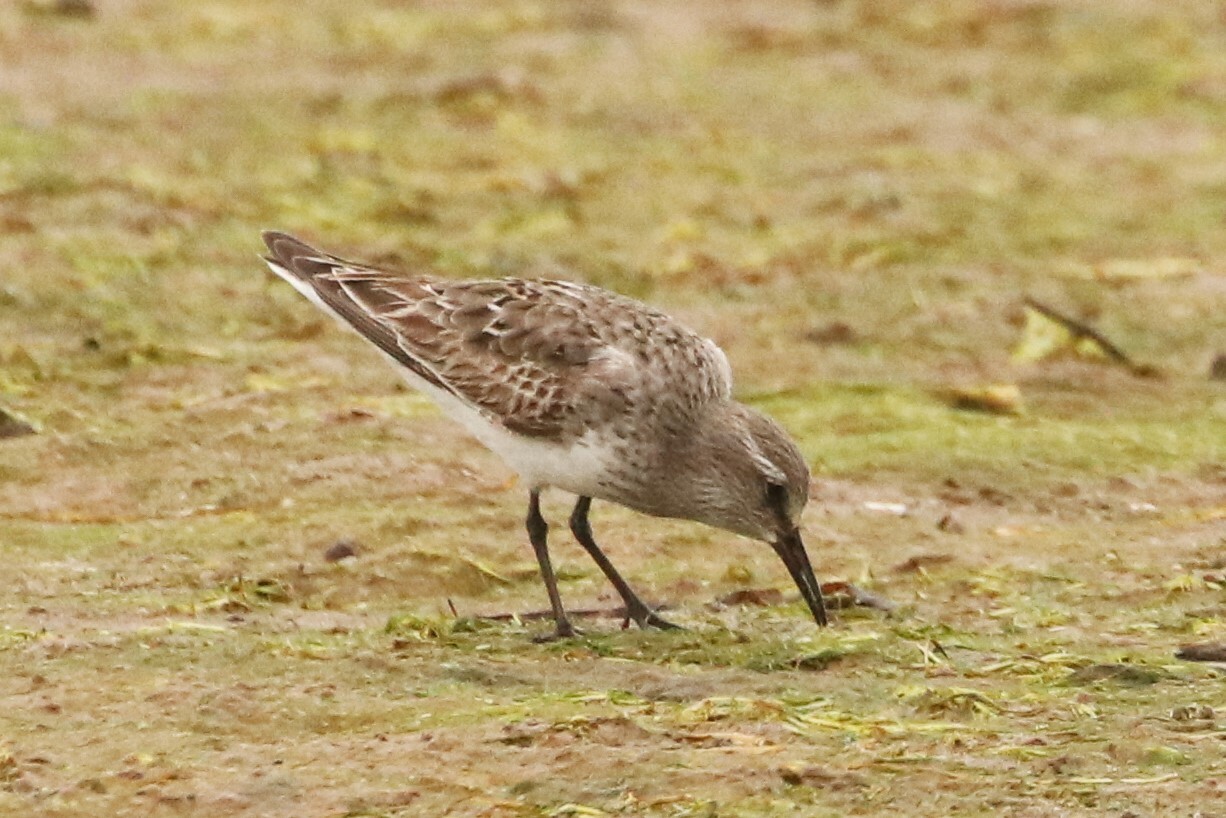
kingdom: Animalia
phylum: Chordata
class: Aves
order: Charadriiformes
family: Scolopacidae
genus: Calidris
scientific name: Calidris fuscicollis
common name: White-rumped sandpiper
